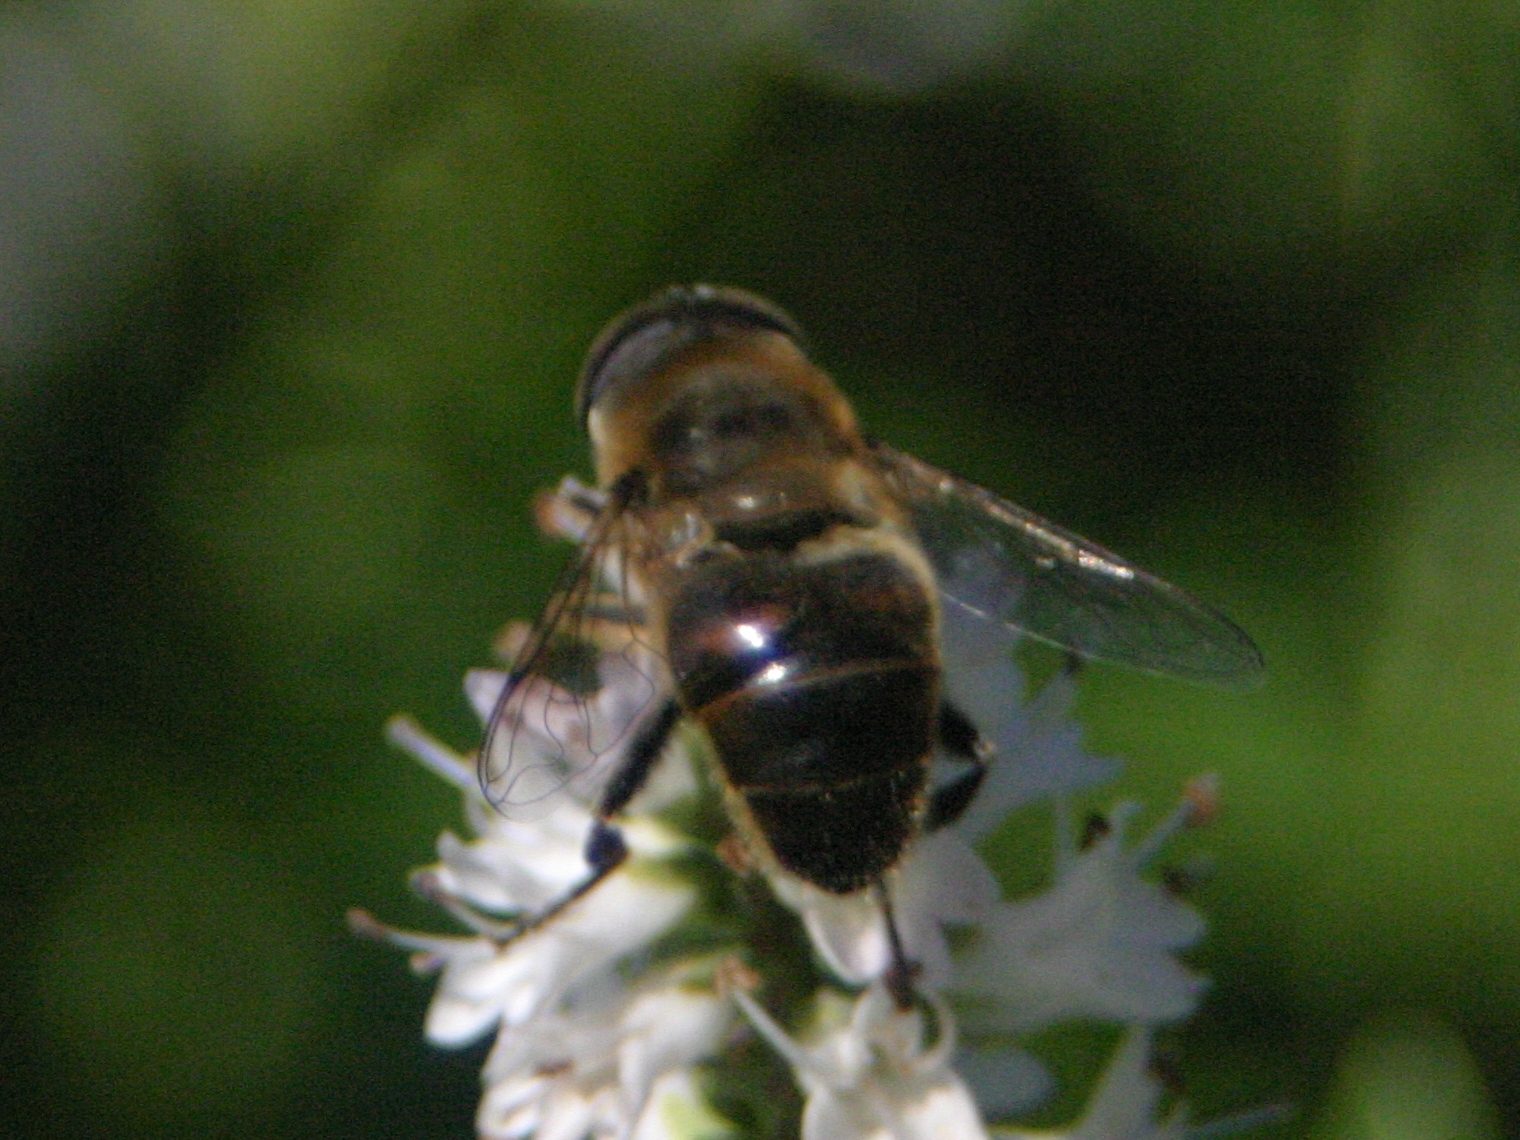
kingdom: Animalia
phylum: Arthropoda
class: Insecta
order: Diptera
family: Syrphidae
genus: Eristalis
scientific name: Eristalis tenax
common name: Drone fly
